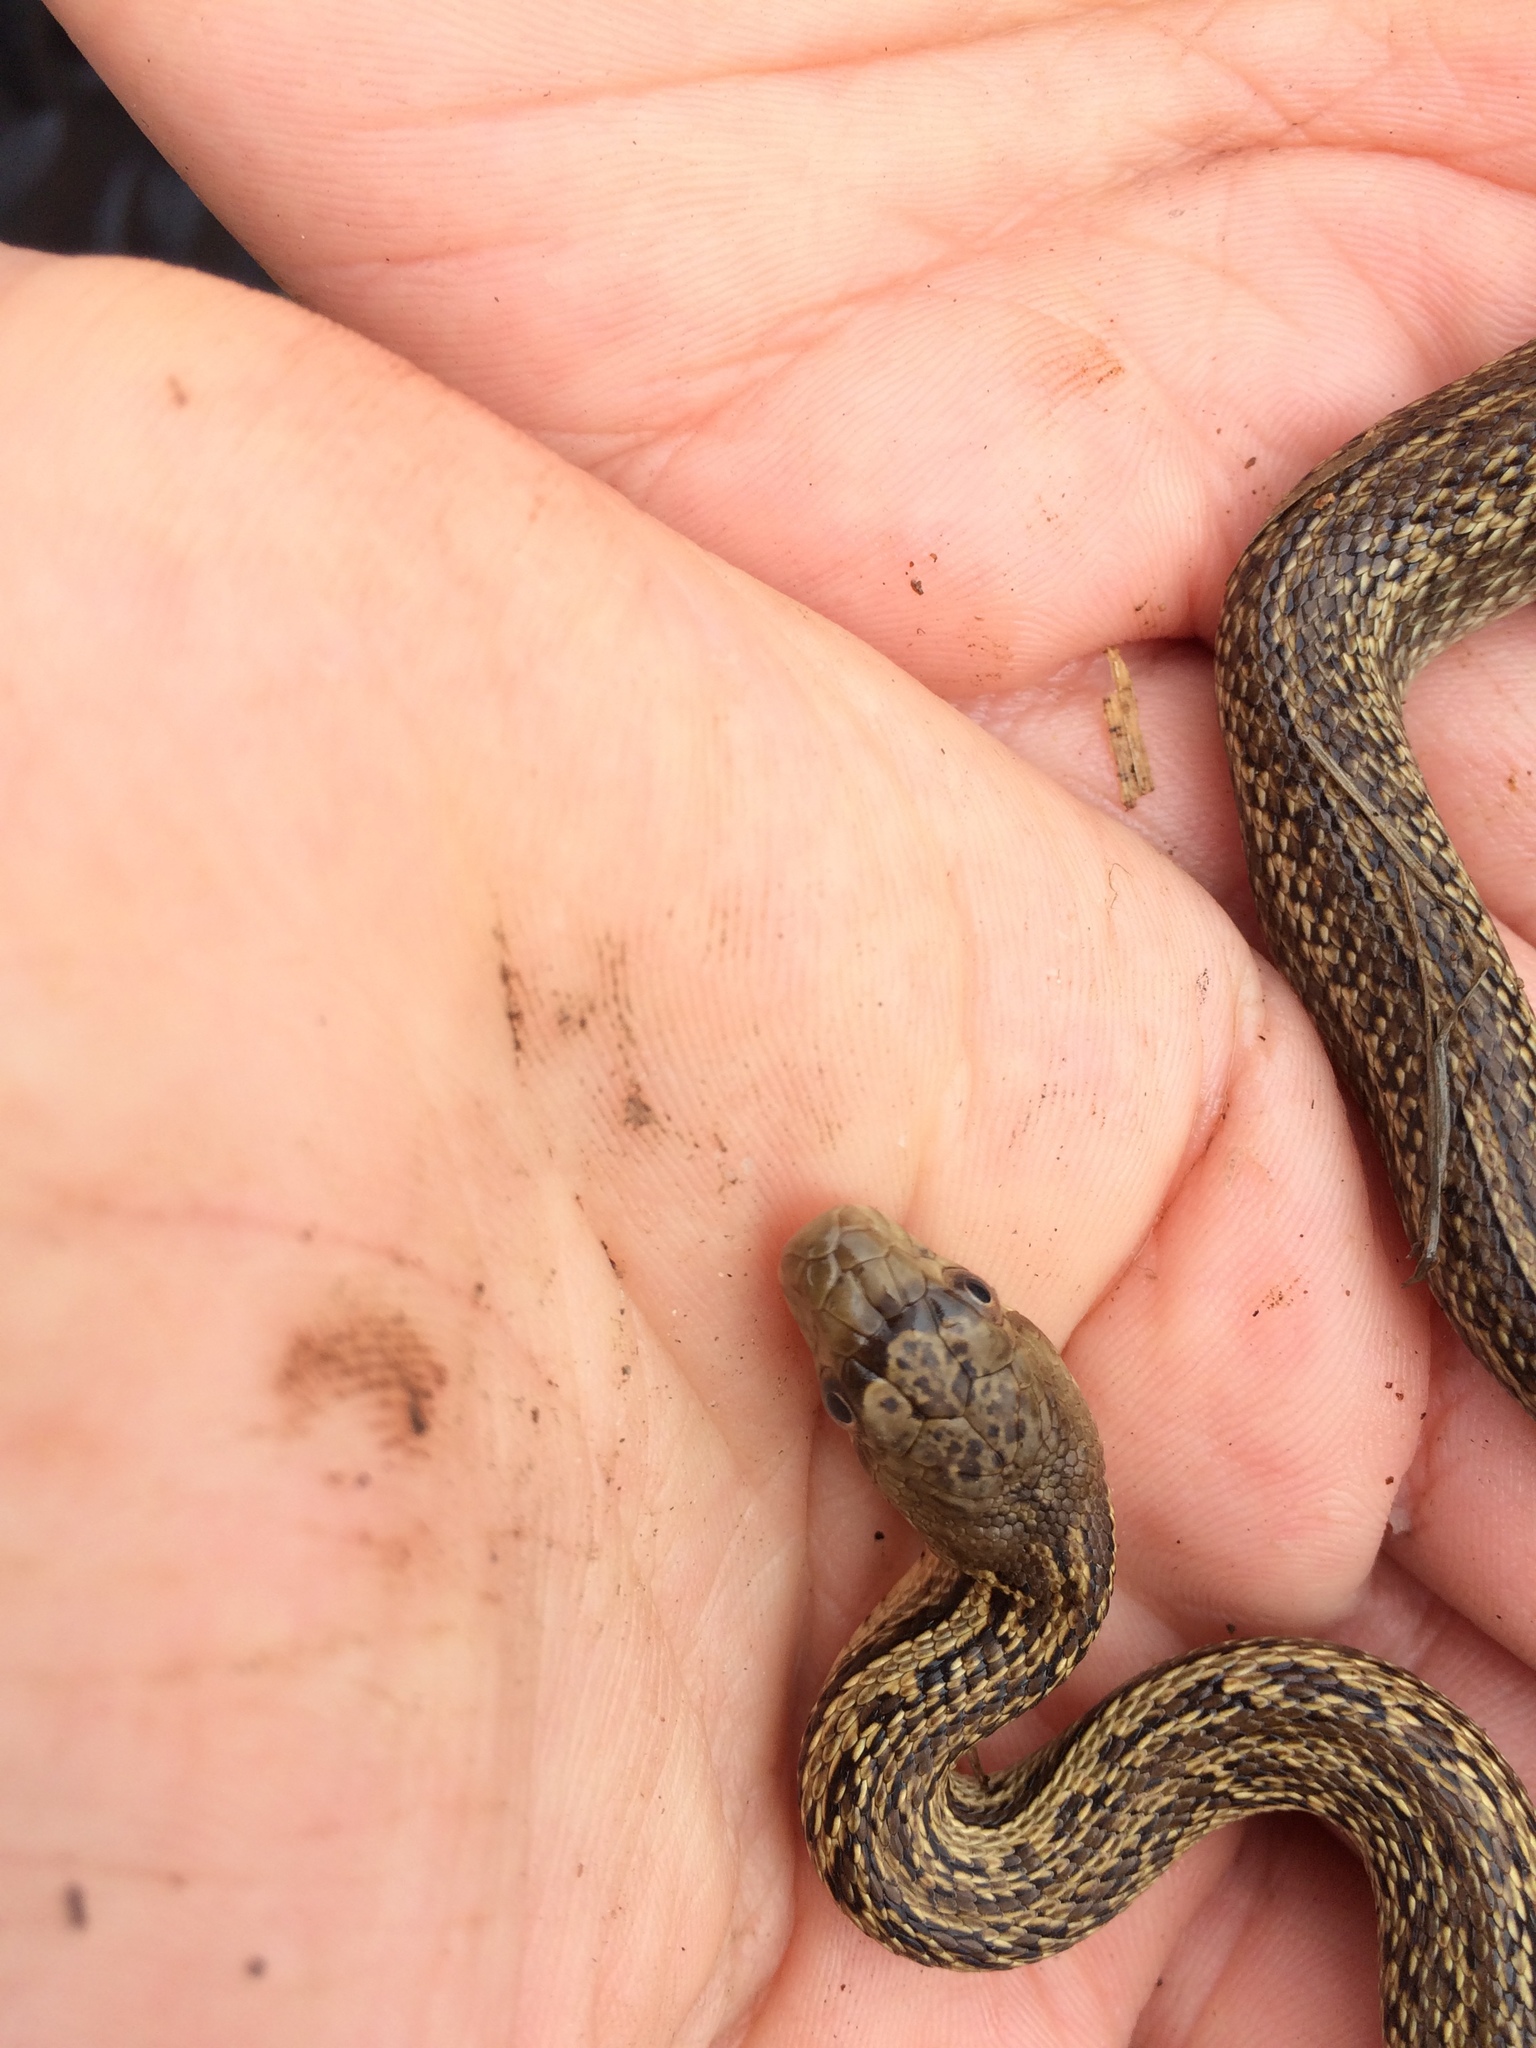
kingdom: Animalia
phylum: Chordata
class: Squamata
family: Colubridae
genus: Pituophis
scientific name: Pituophis catenifer
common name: Gopher snake
